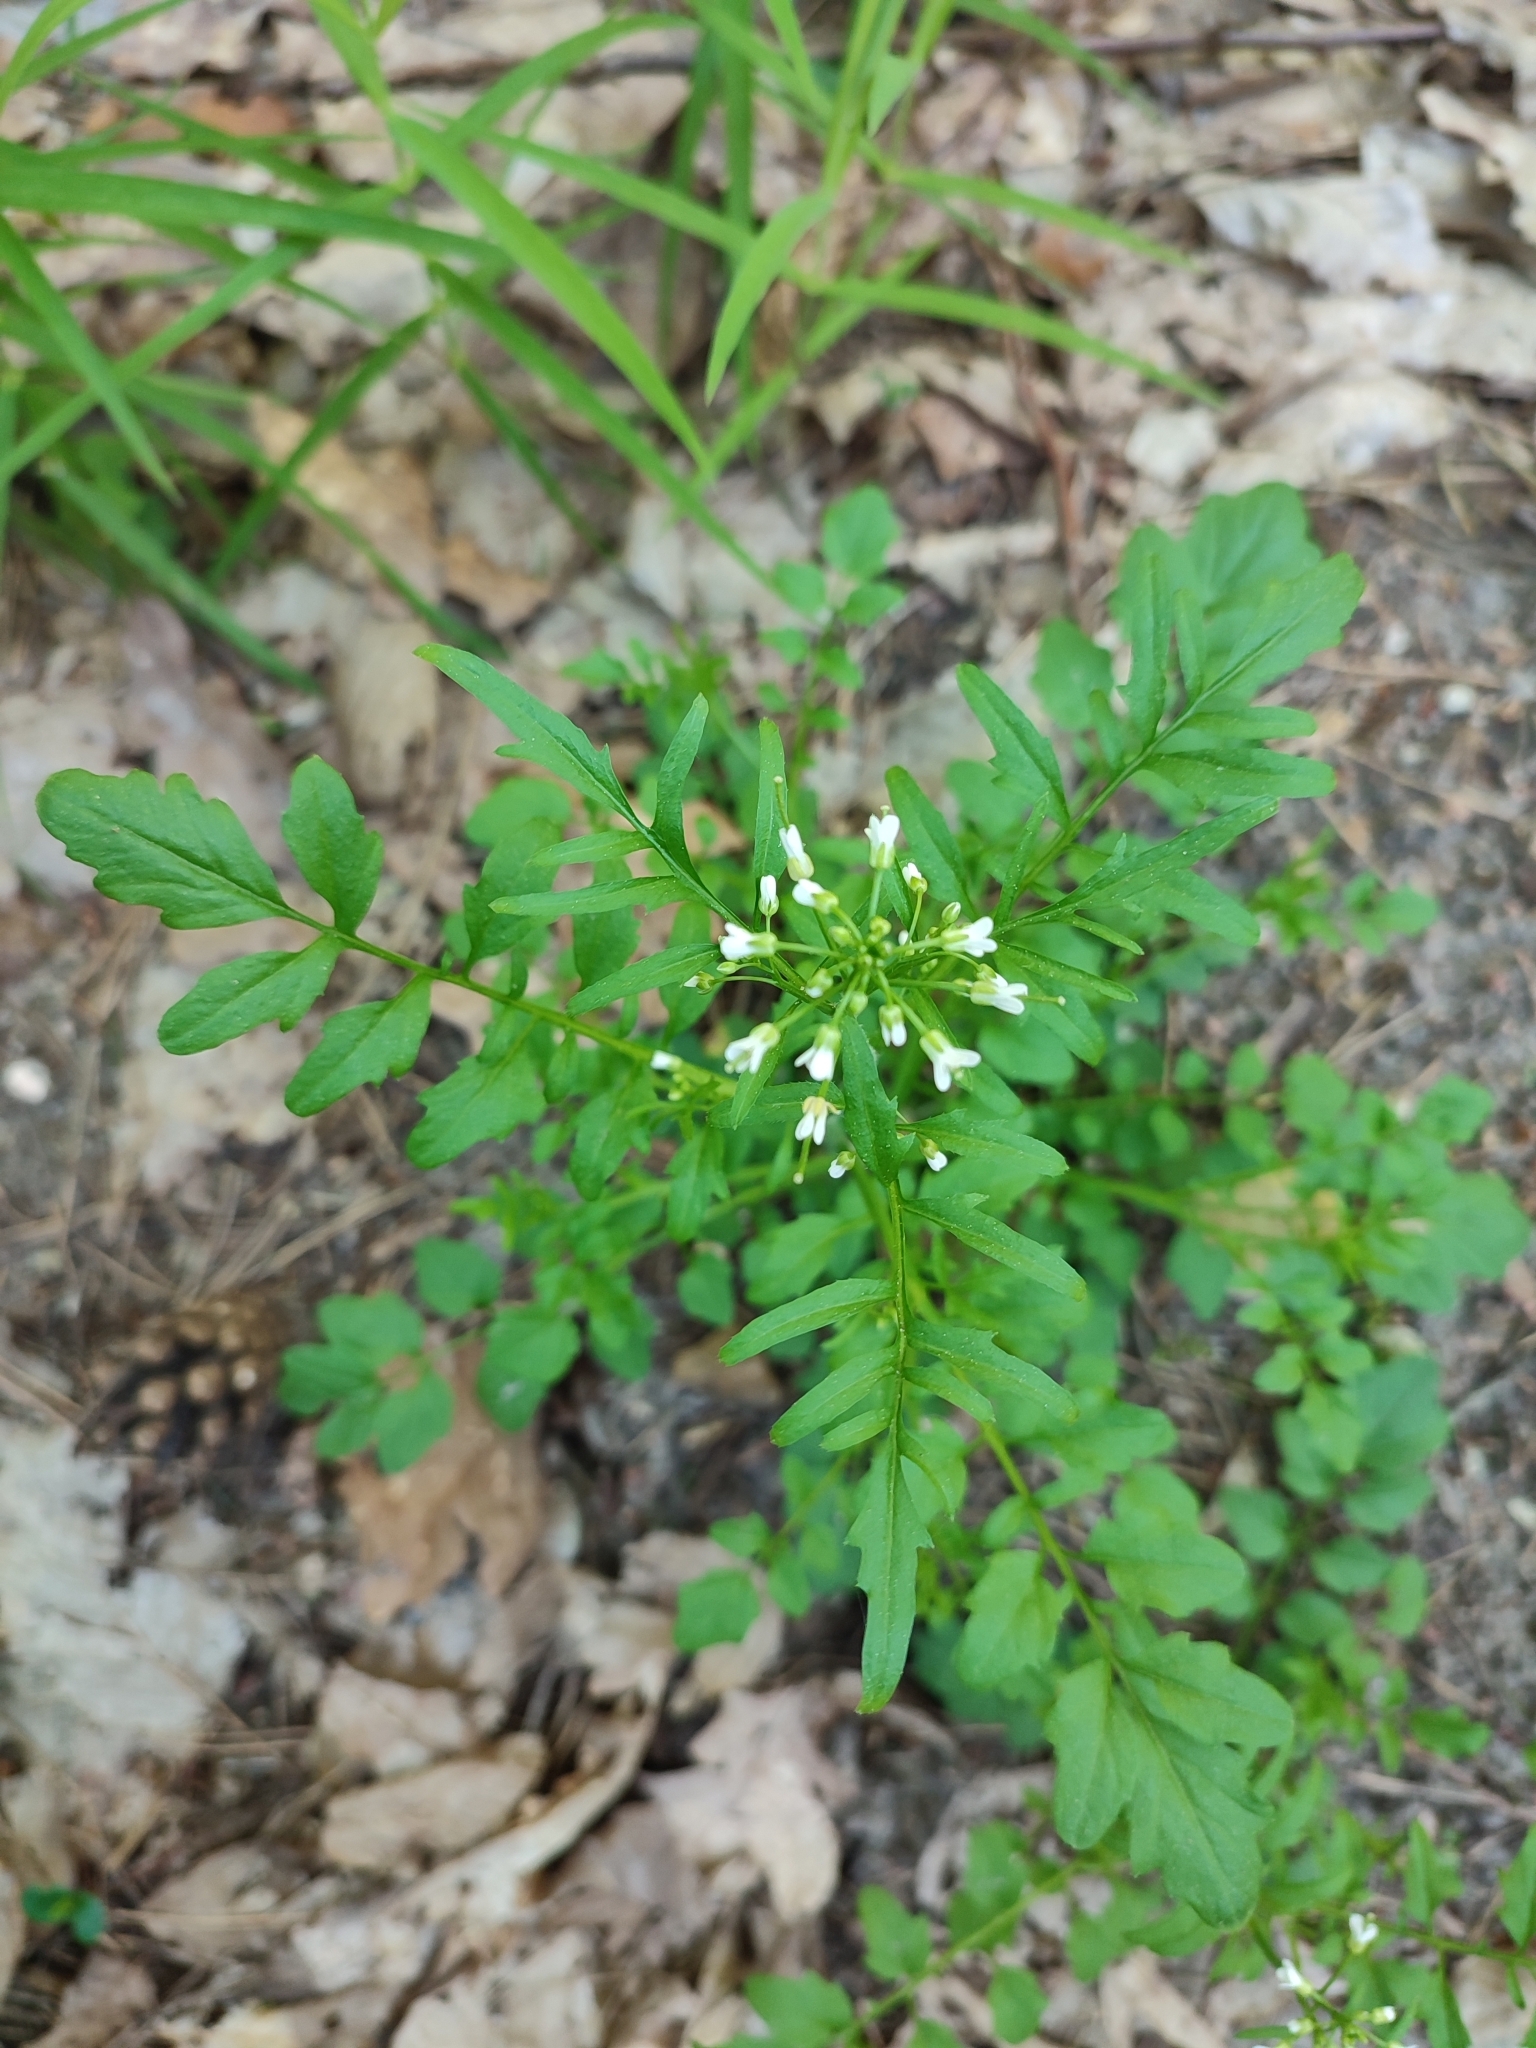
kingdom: Plantae
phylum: Tracheophyta
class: Magnoliopsida
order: Brassicales
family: Brassicaceae
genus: Cardamine
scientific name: Cardamine flexuosa
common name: Woodland bittercress
